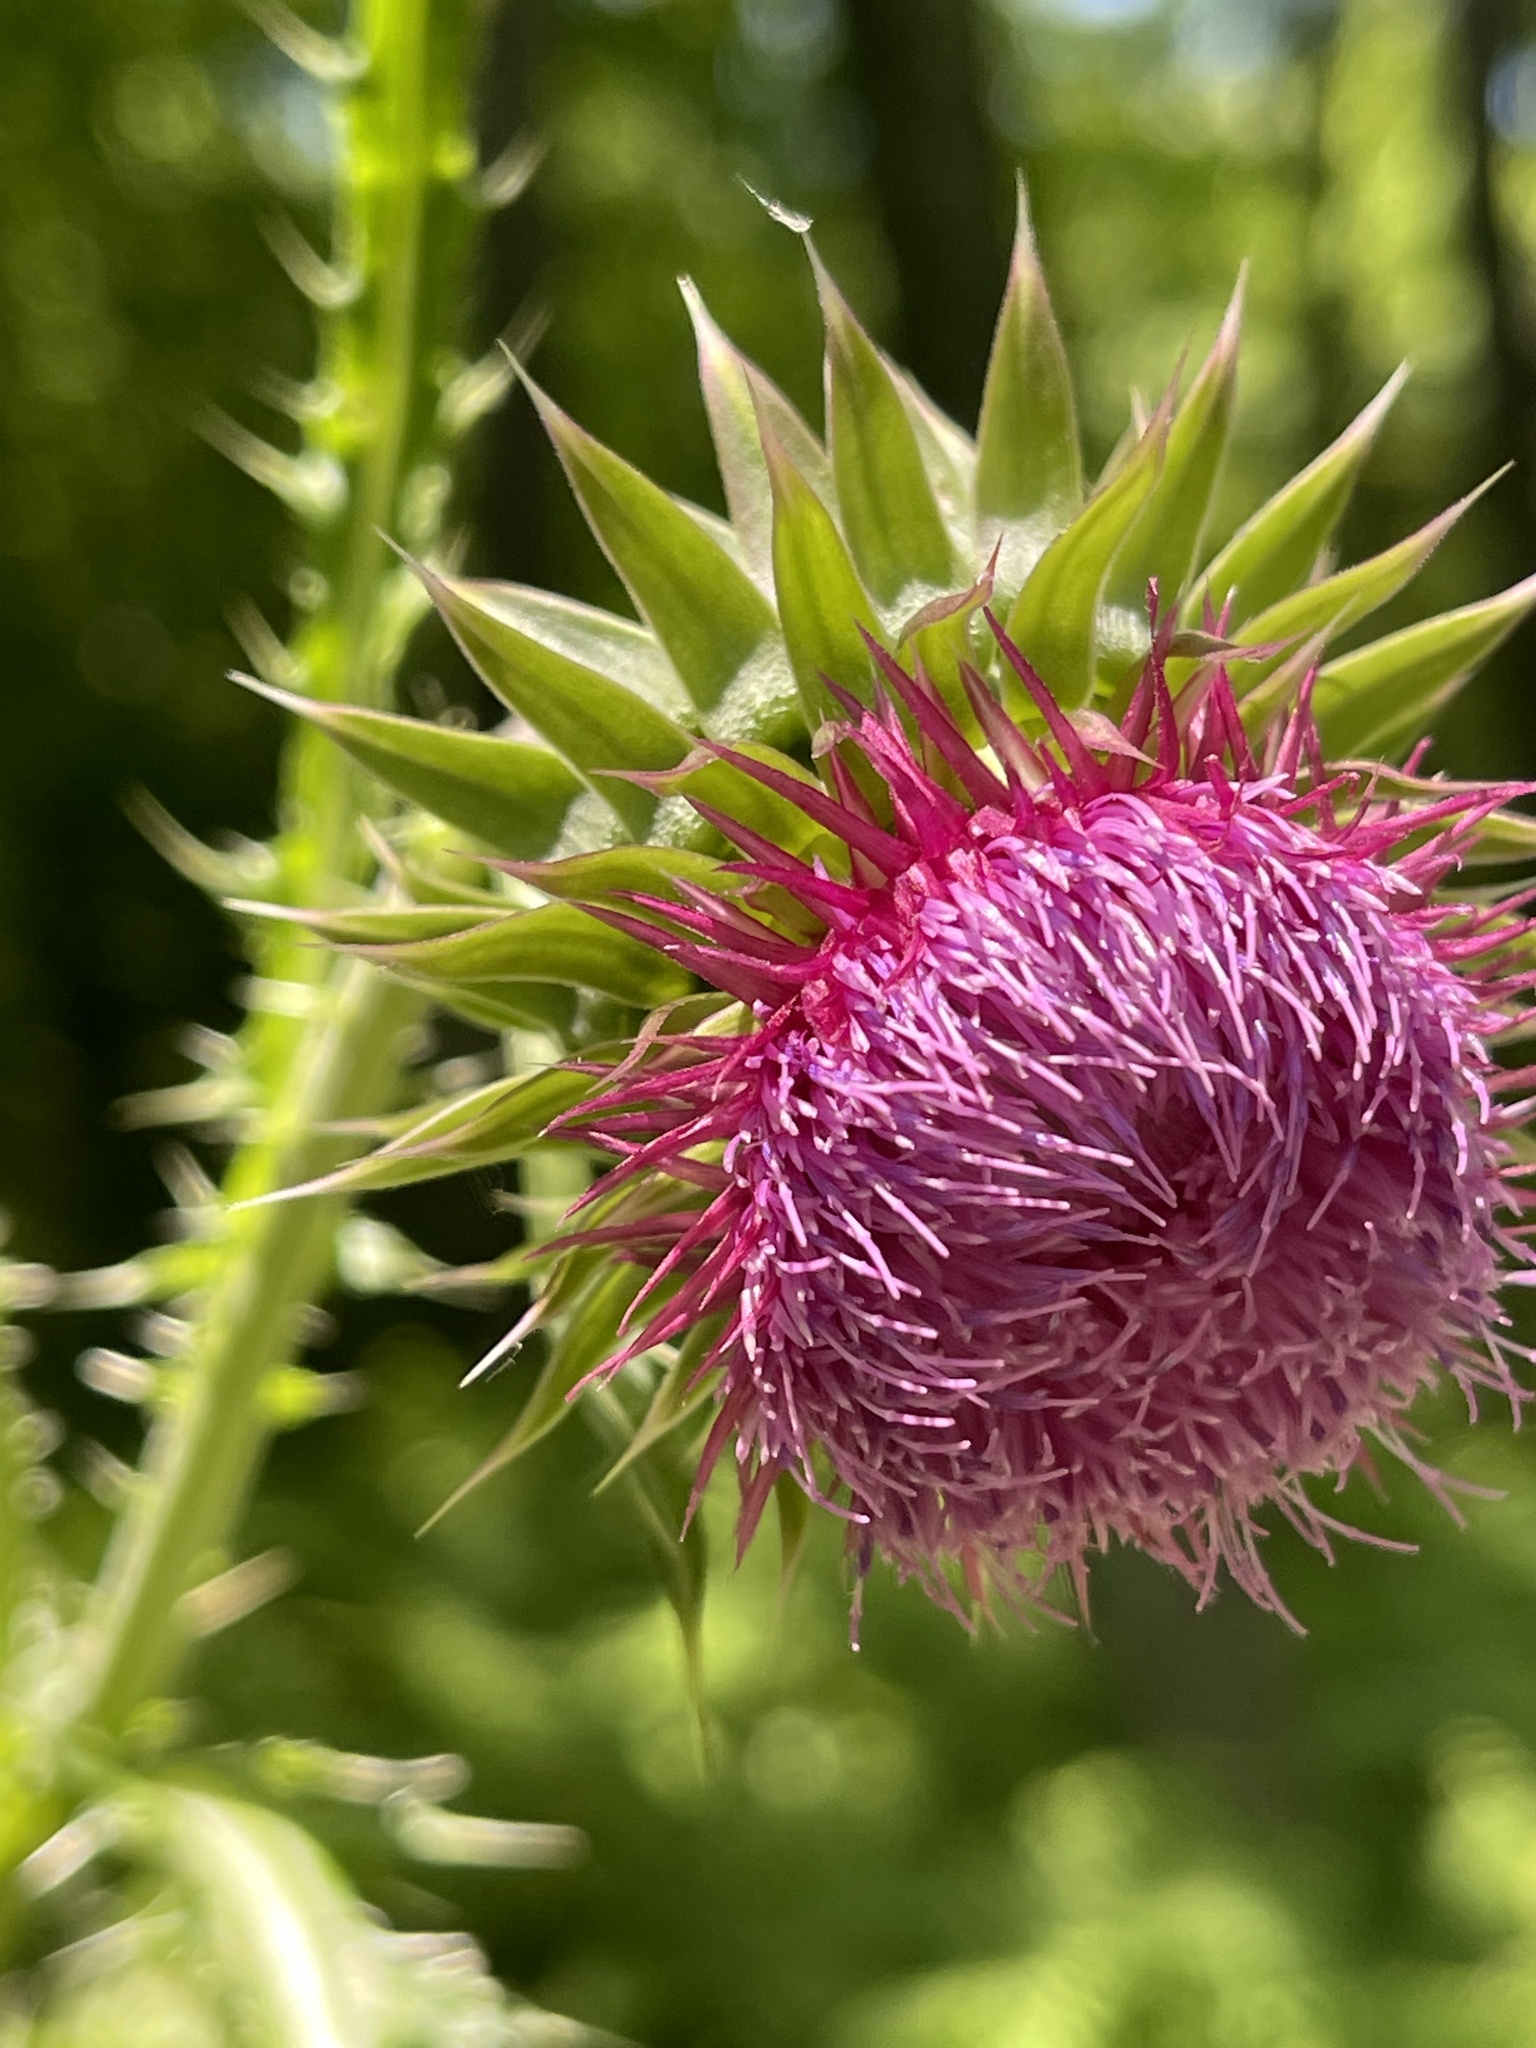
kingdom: Plantae
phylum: Tracheophyta
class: Magnoliopsida
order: Asterales
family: Asteraceae
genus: Carduus
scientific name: Carduus nutans
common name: Musk thistle
